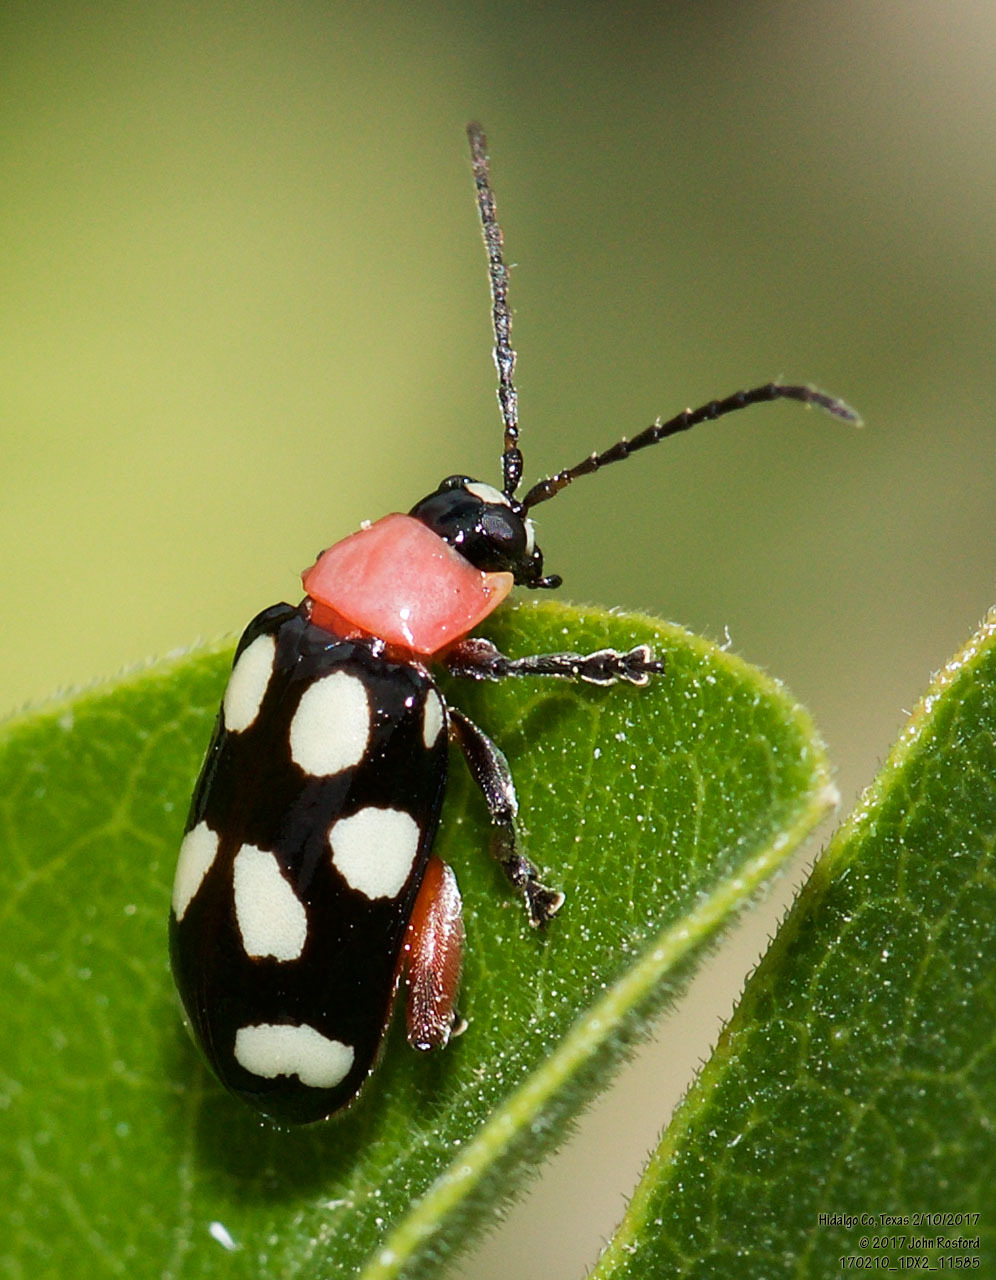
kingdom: Animalia
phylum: Arthropoda
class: Insecta
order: Coleoptera
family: Chrysomelidae
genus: Omophoita
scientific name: Omophoita cyanipennis
